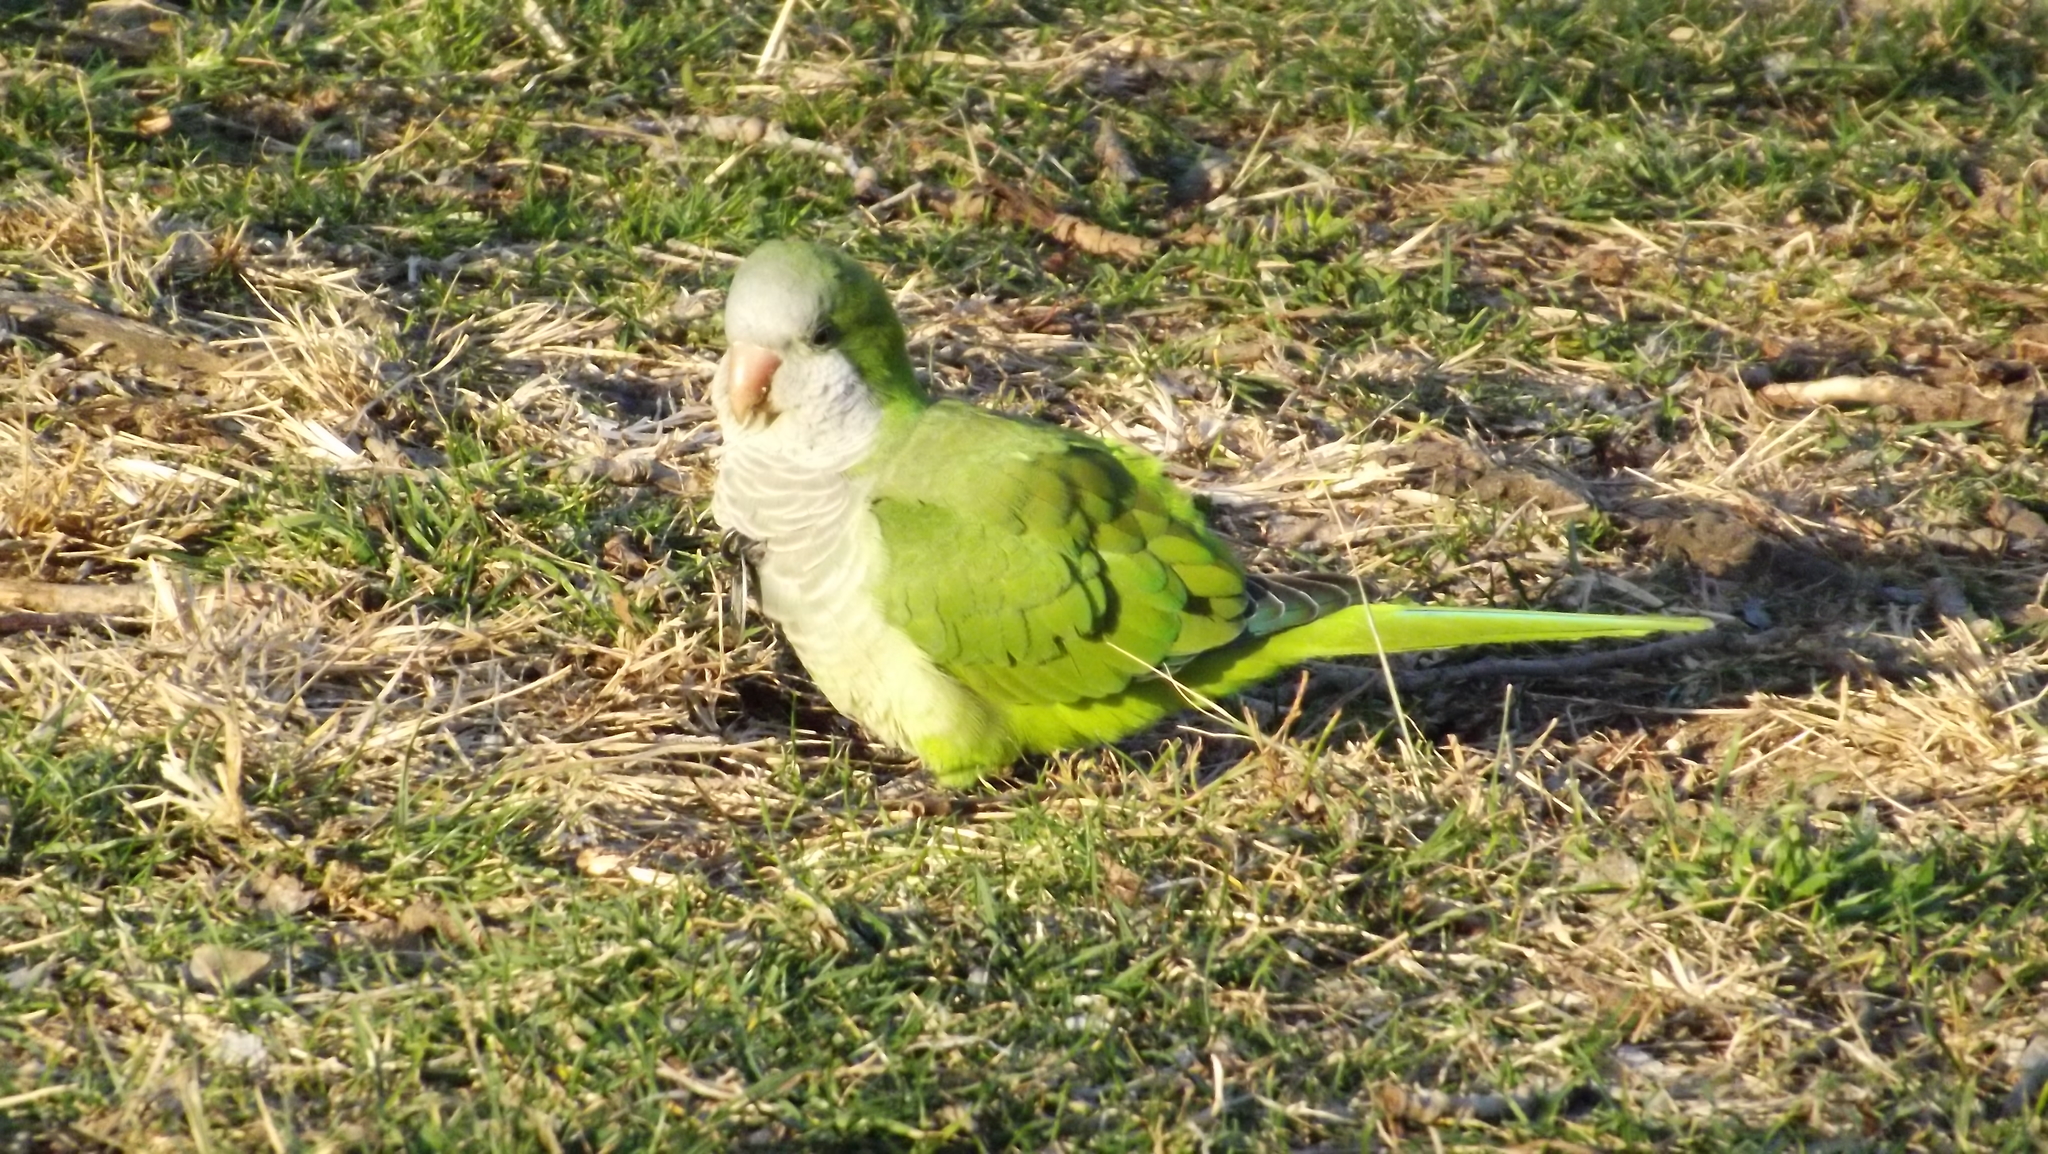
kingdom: Animalia
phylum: Chordata
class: Aves
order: Psittaciformes
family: Psittacidae
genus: Myiopsitta
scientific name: Myiopsitta monachus
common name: Monk parakeet
